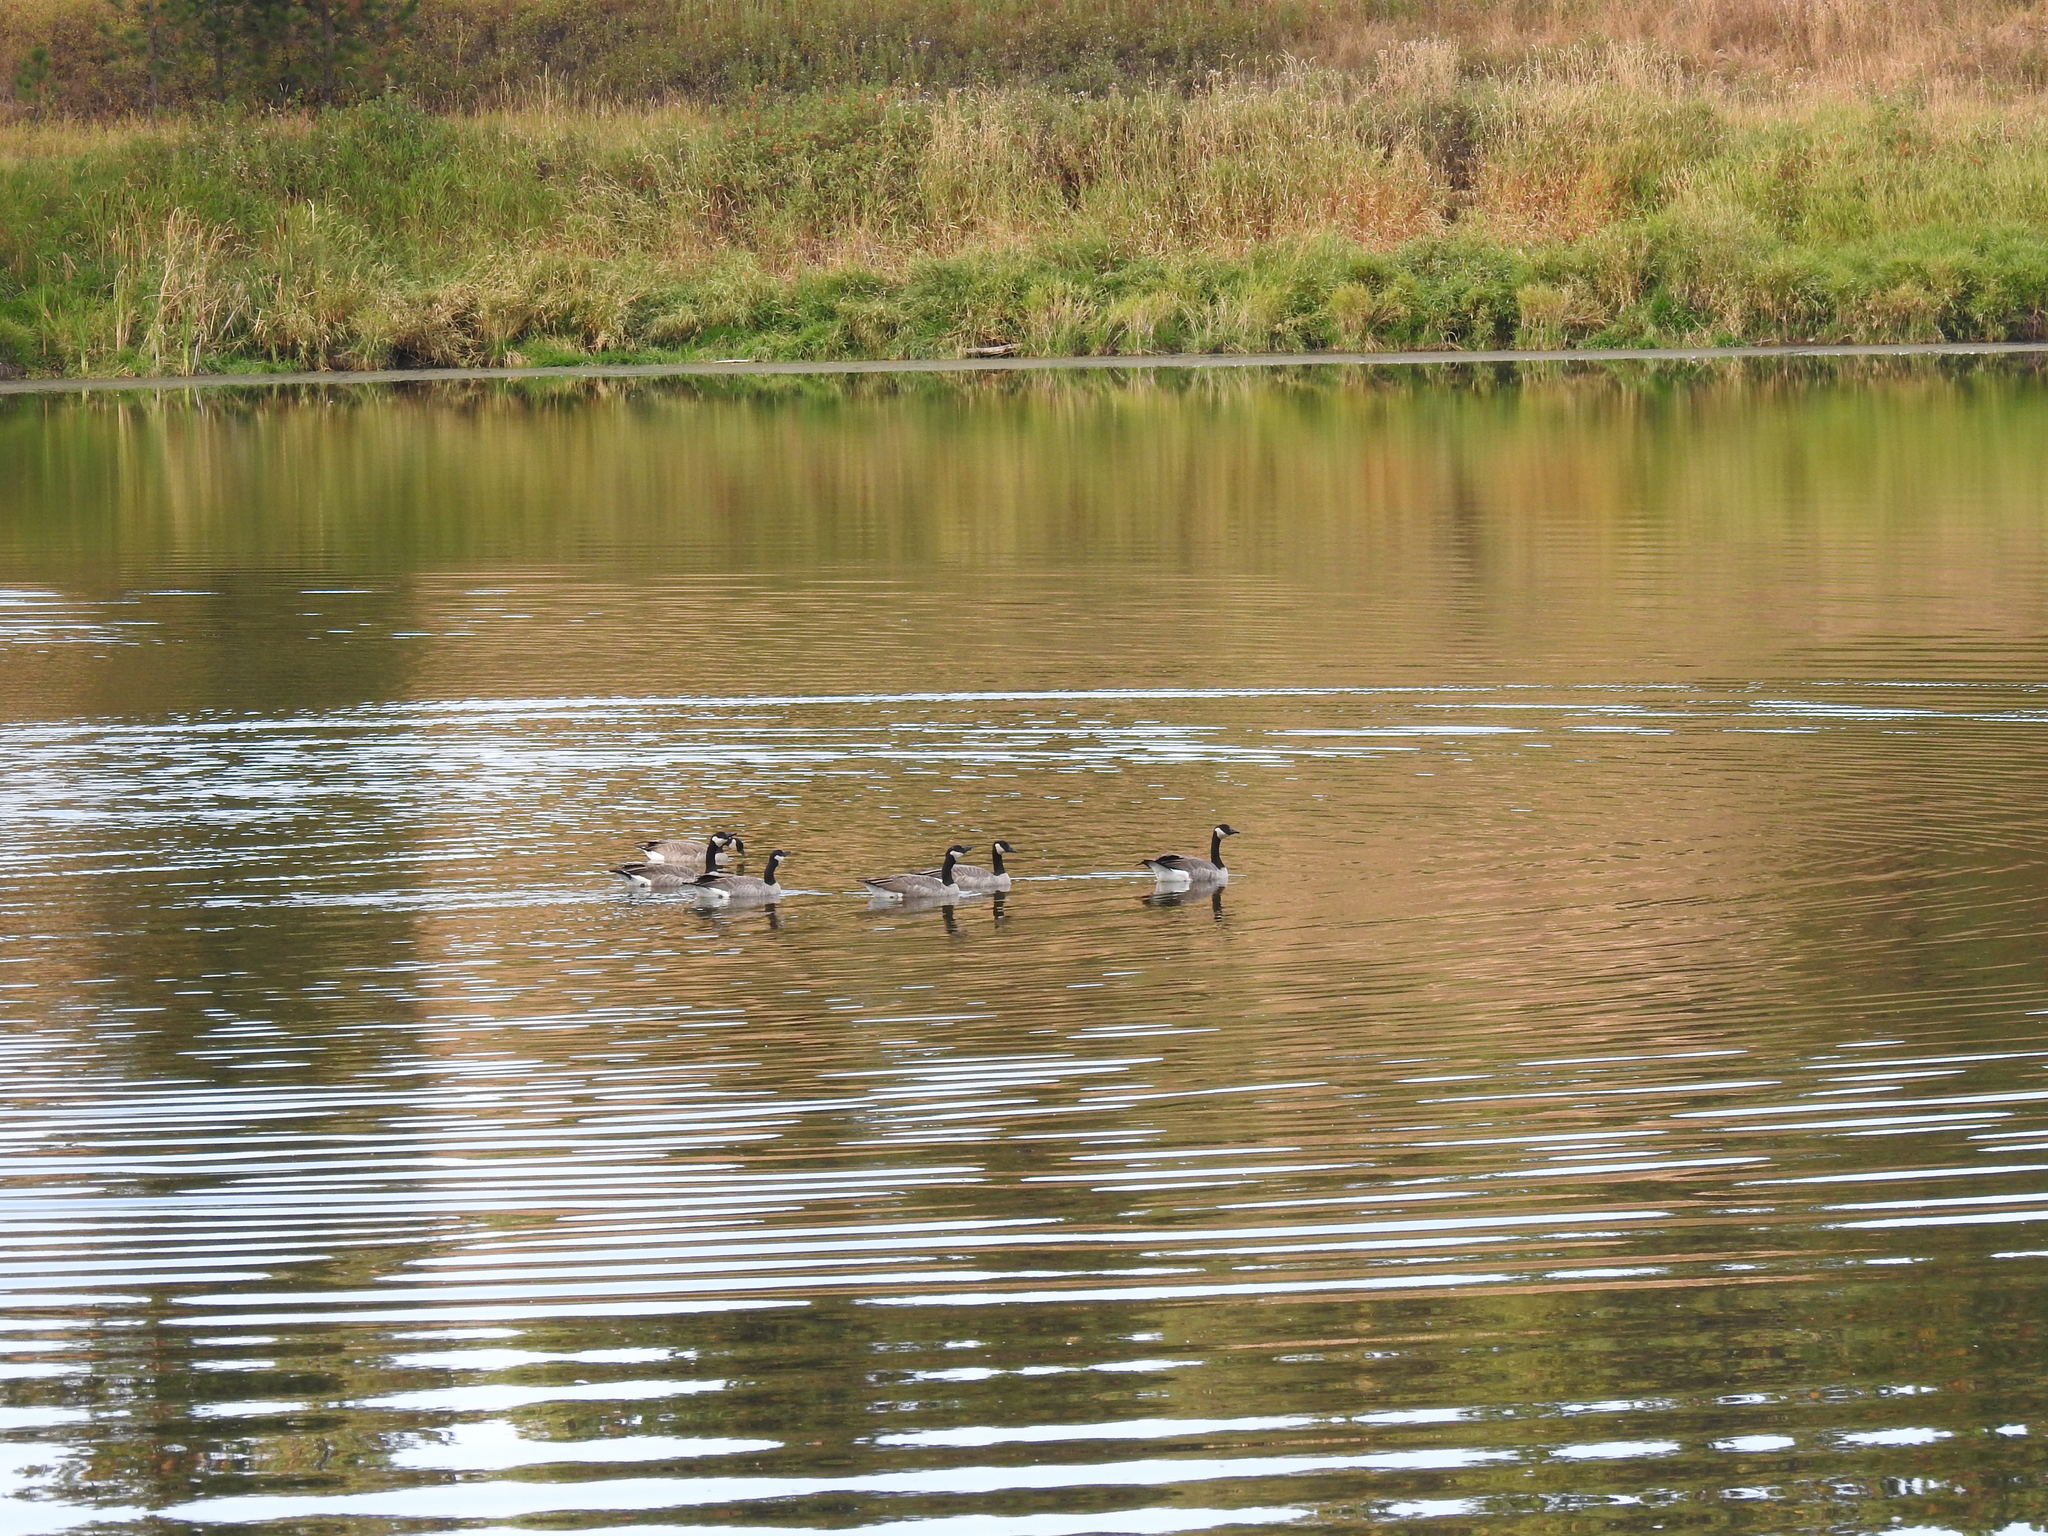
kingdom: Animalia
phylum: Chordata
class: Aves
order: Anseriformes
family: Anatidae
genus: Branta
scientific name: Branta canadensis
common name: Canada goose
